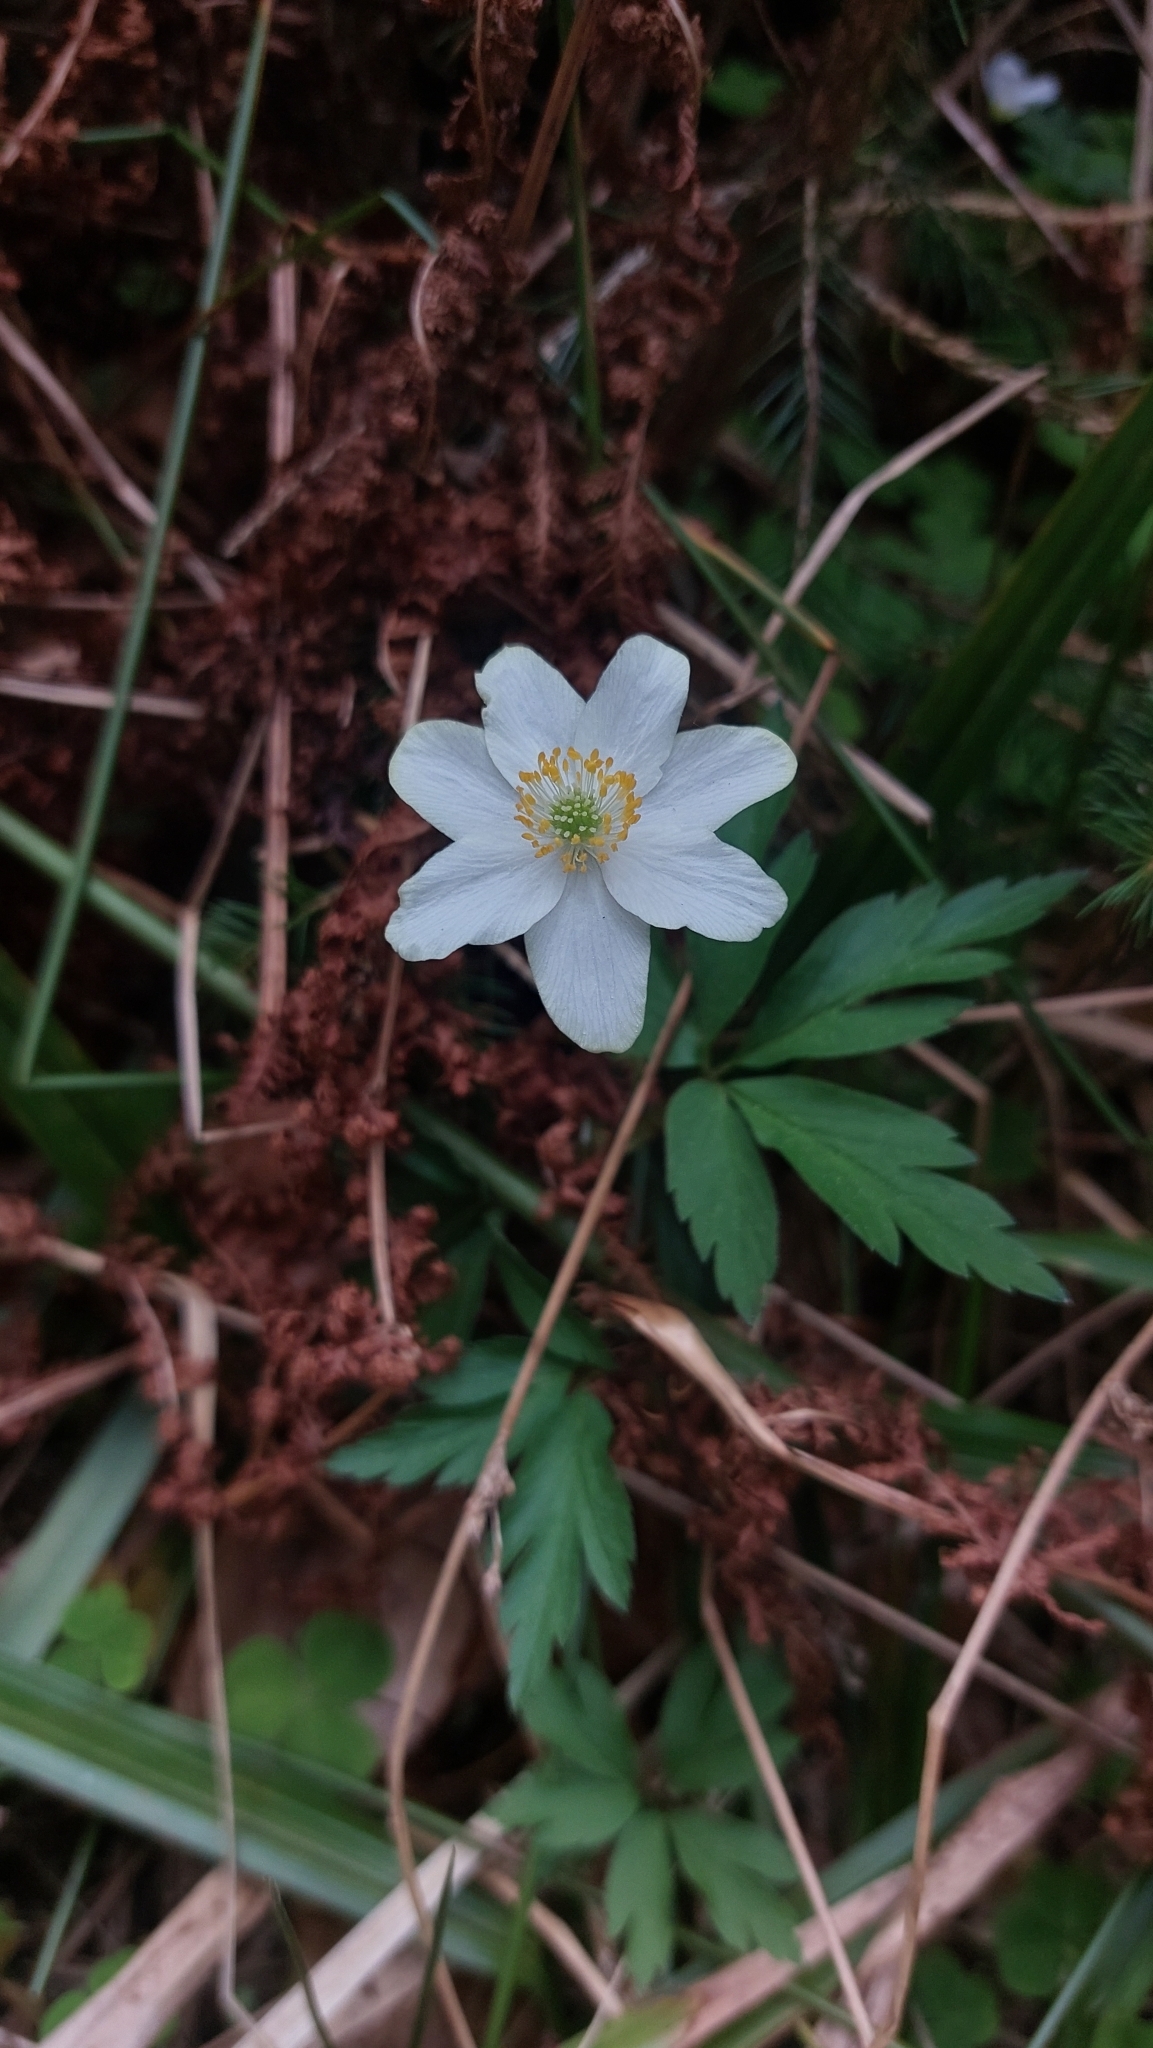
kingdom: Plantae
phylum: Tracheophyta
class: Magnoliopsida
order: Ranunculales
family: Ranunculaceae
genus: Anemone
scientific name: Anemone nemorosa
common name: Wood anemone
